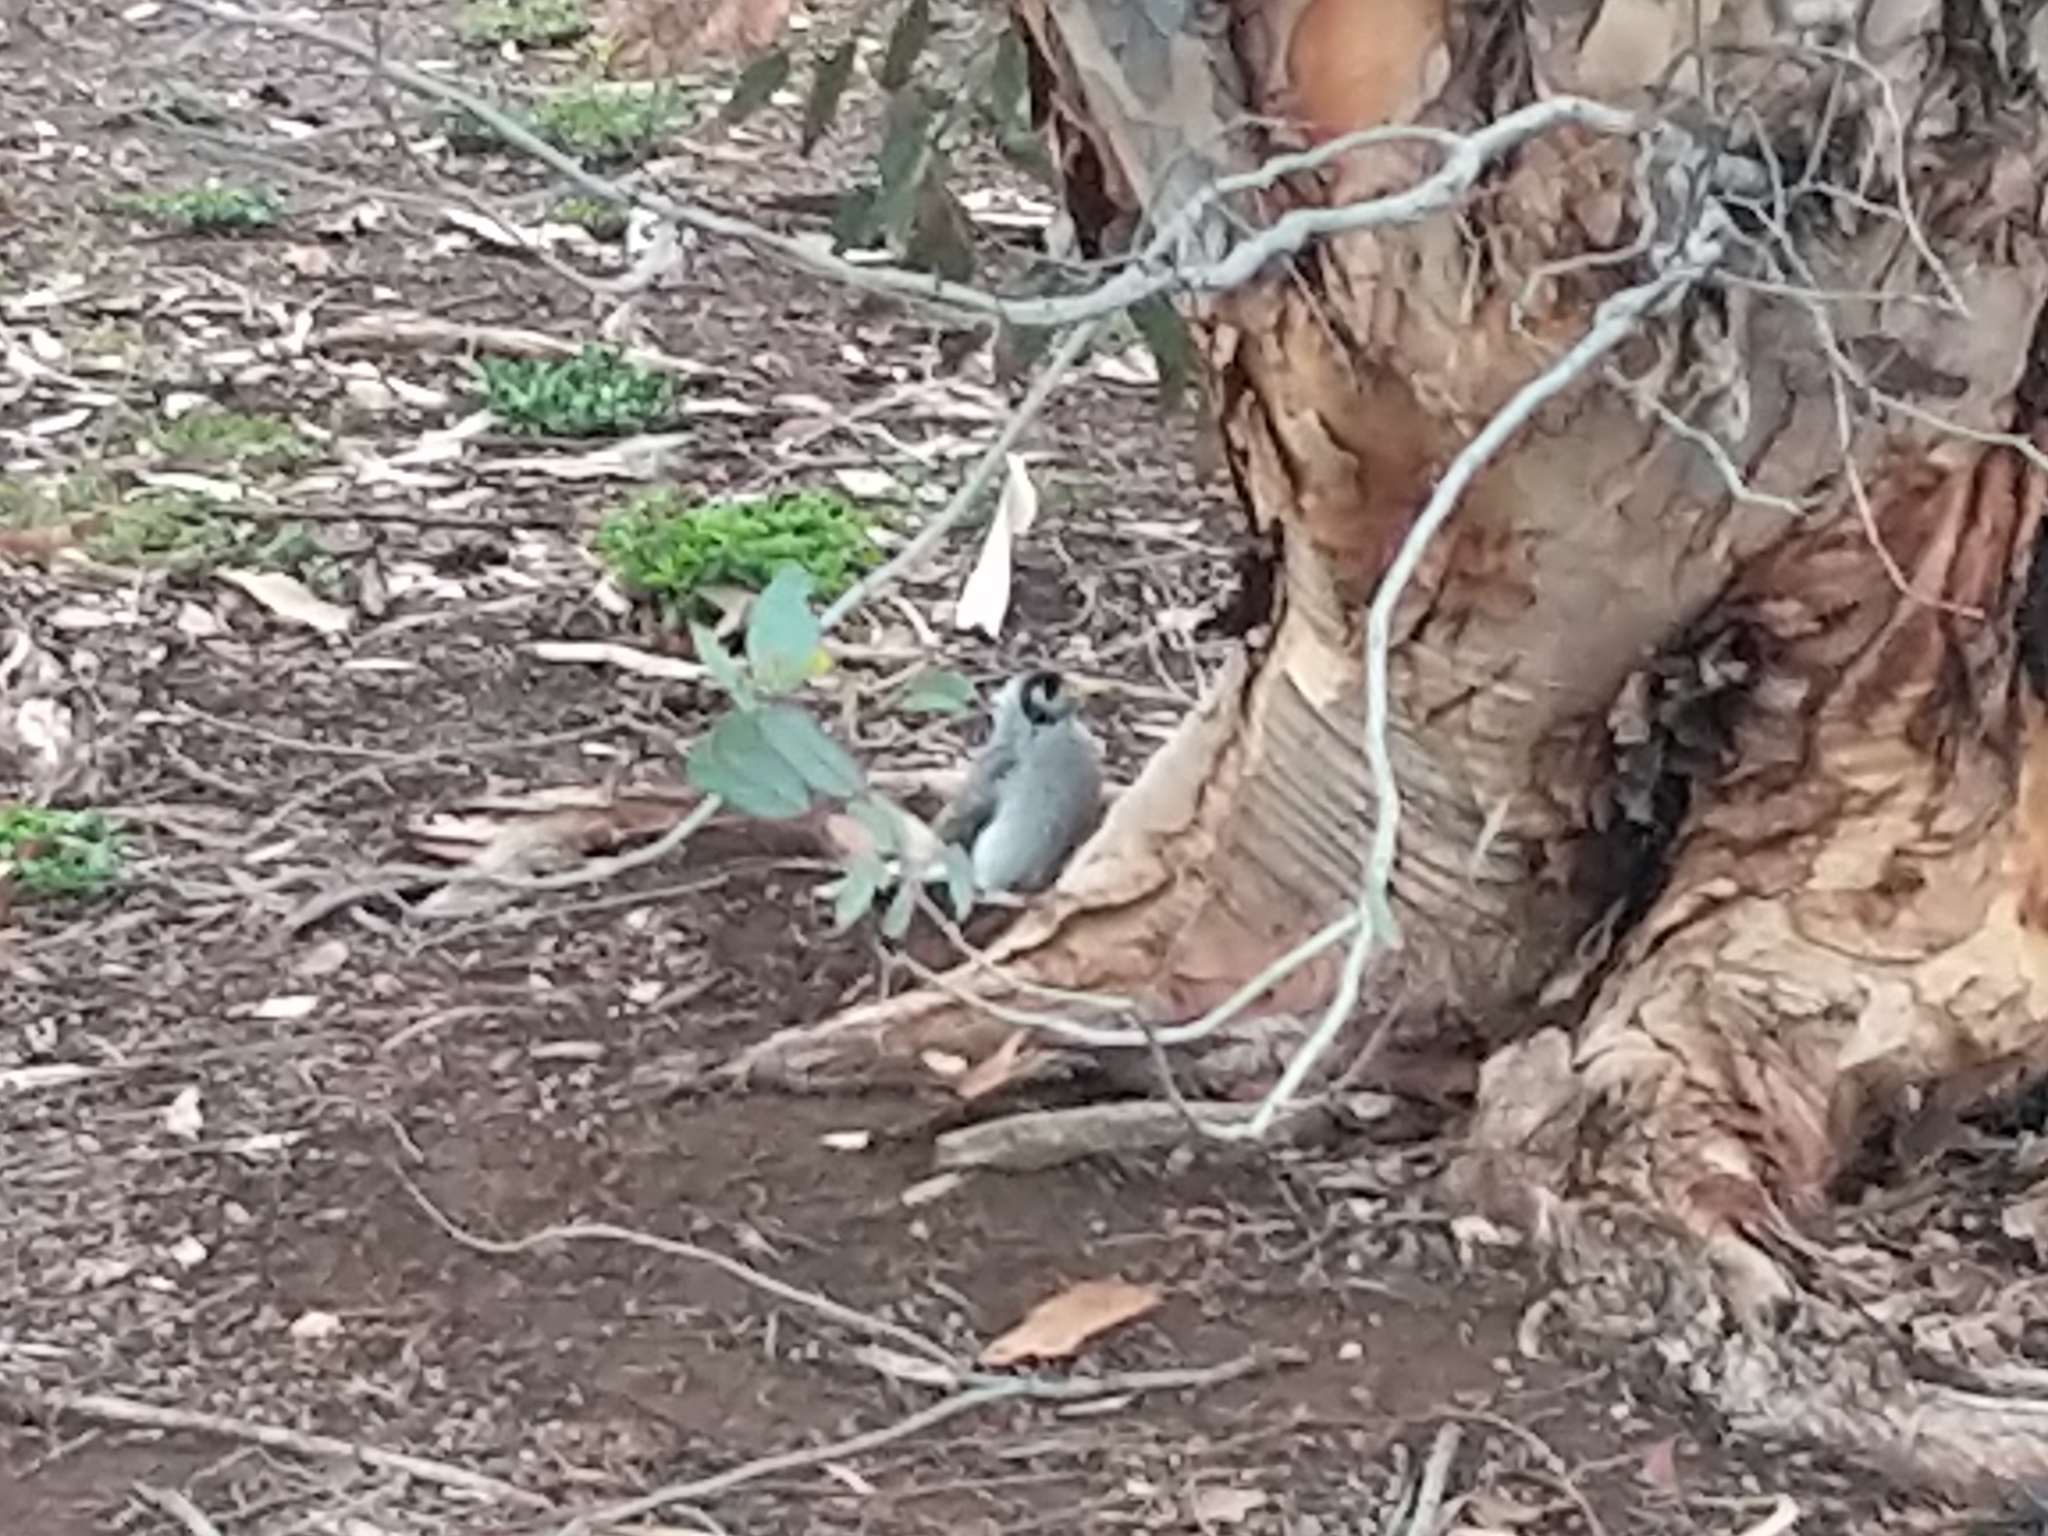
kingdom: Animalia
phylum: Chordata
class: Aves
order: Passeriformes
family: Meliphagidae
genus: Manorina
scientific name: Manorina melanocephala
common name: Noisy miner
